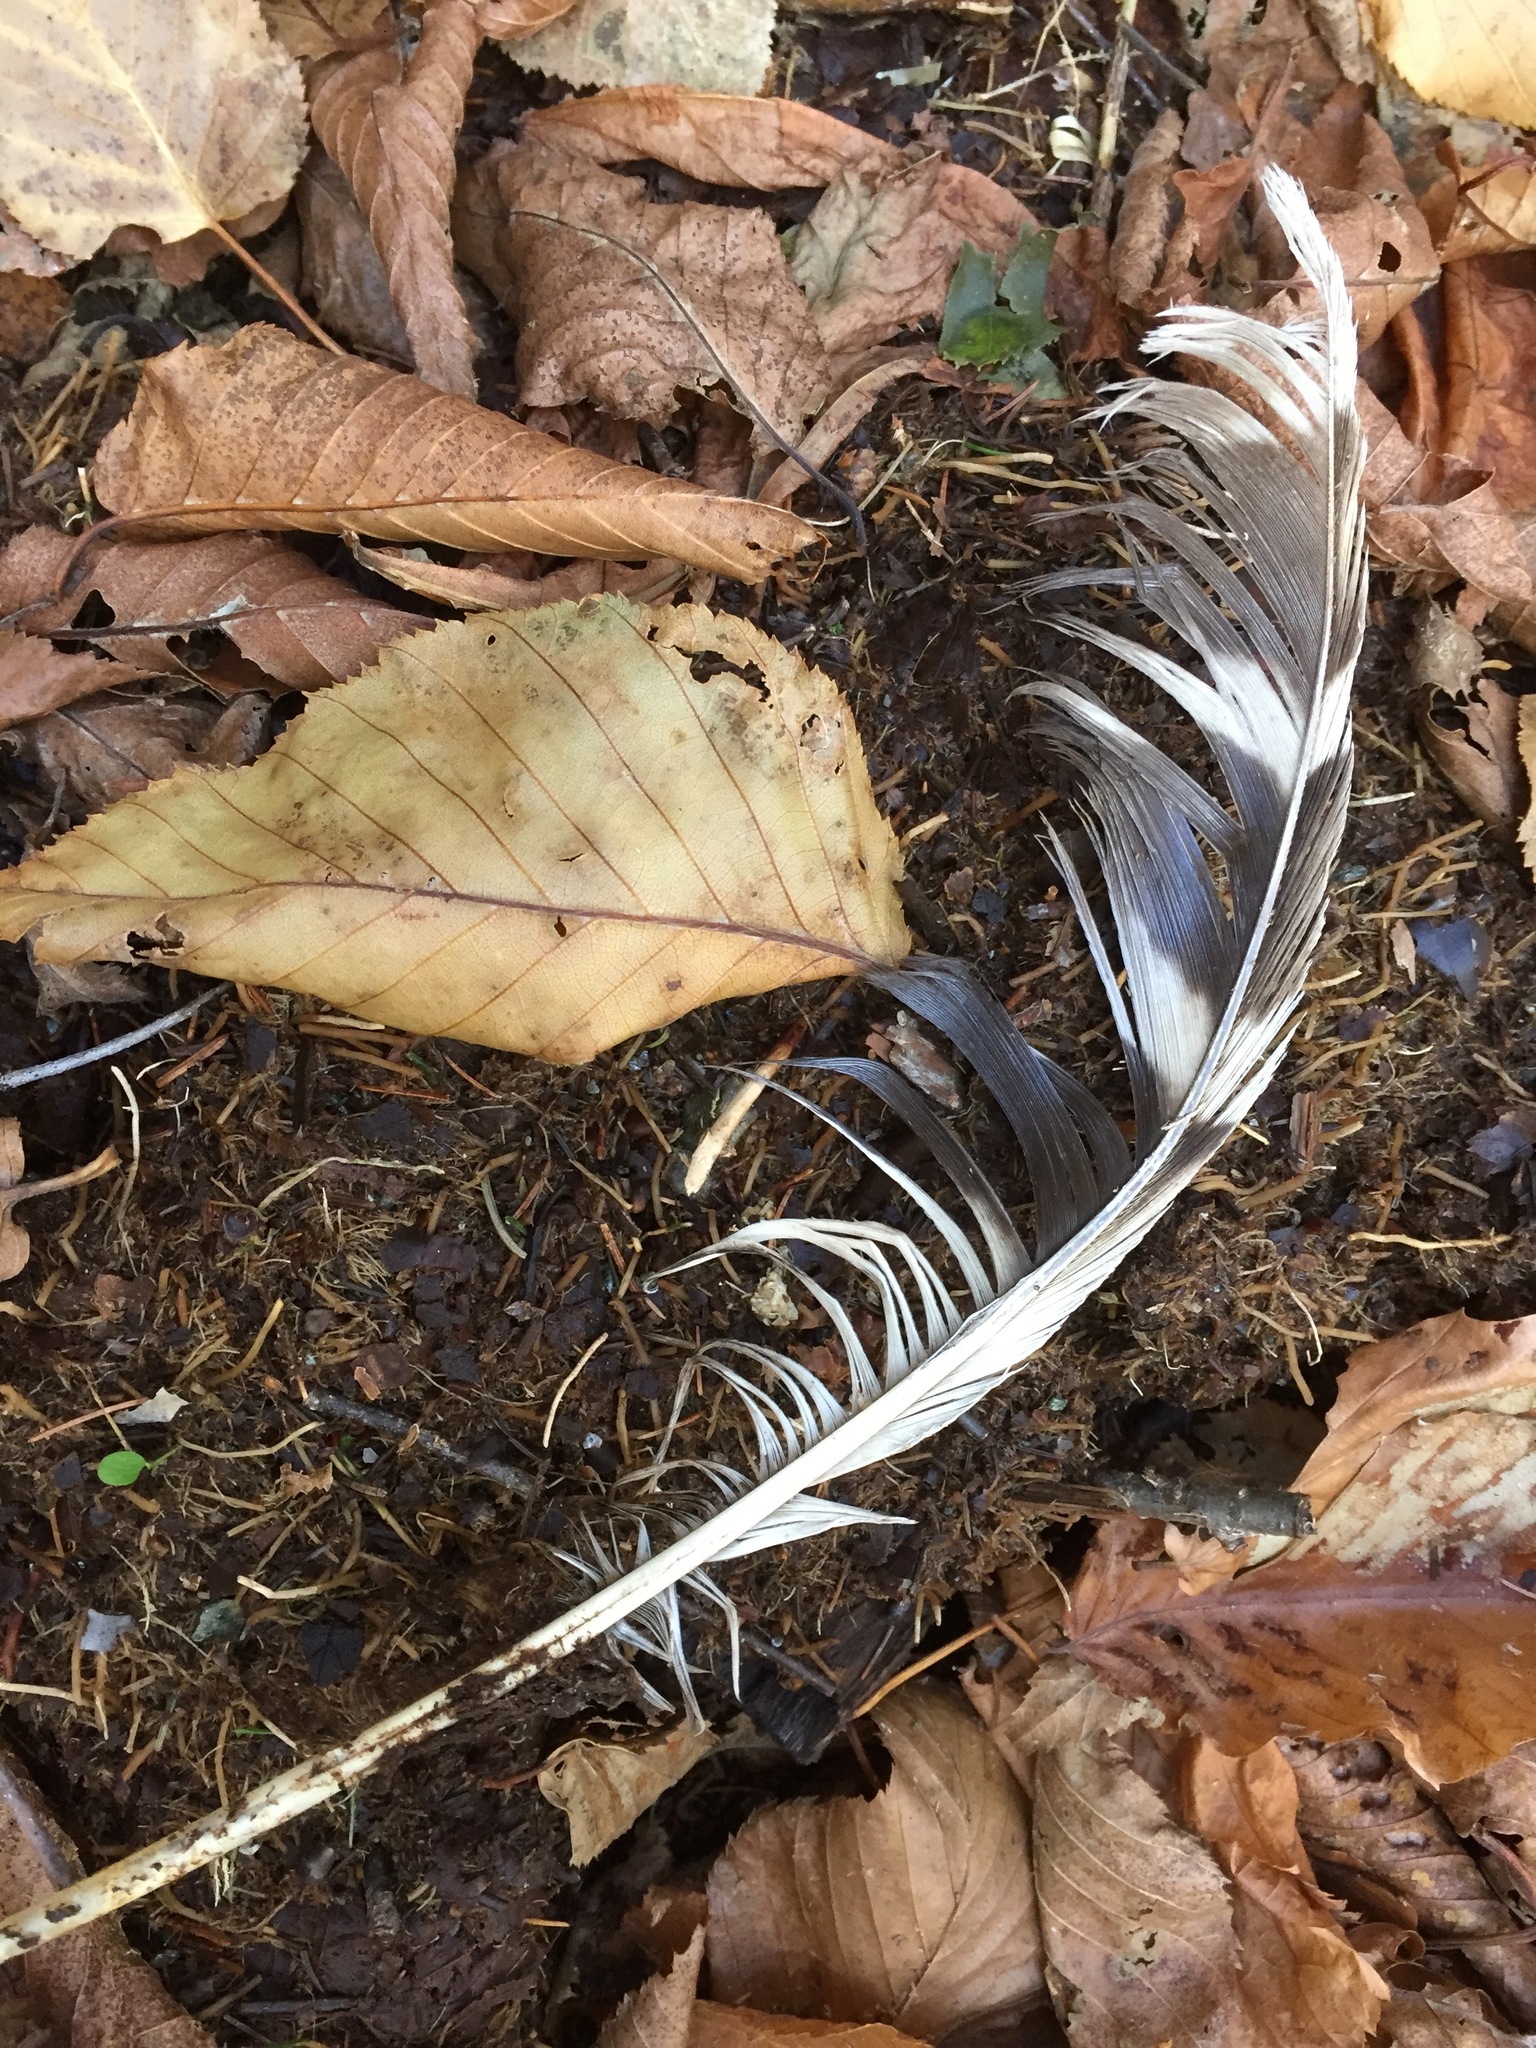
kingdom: Animalia
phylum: Chordata
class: Aves
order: Strigiformes
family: Strigidae
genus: Strix
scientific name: Strix varia
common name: Barred owl
